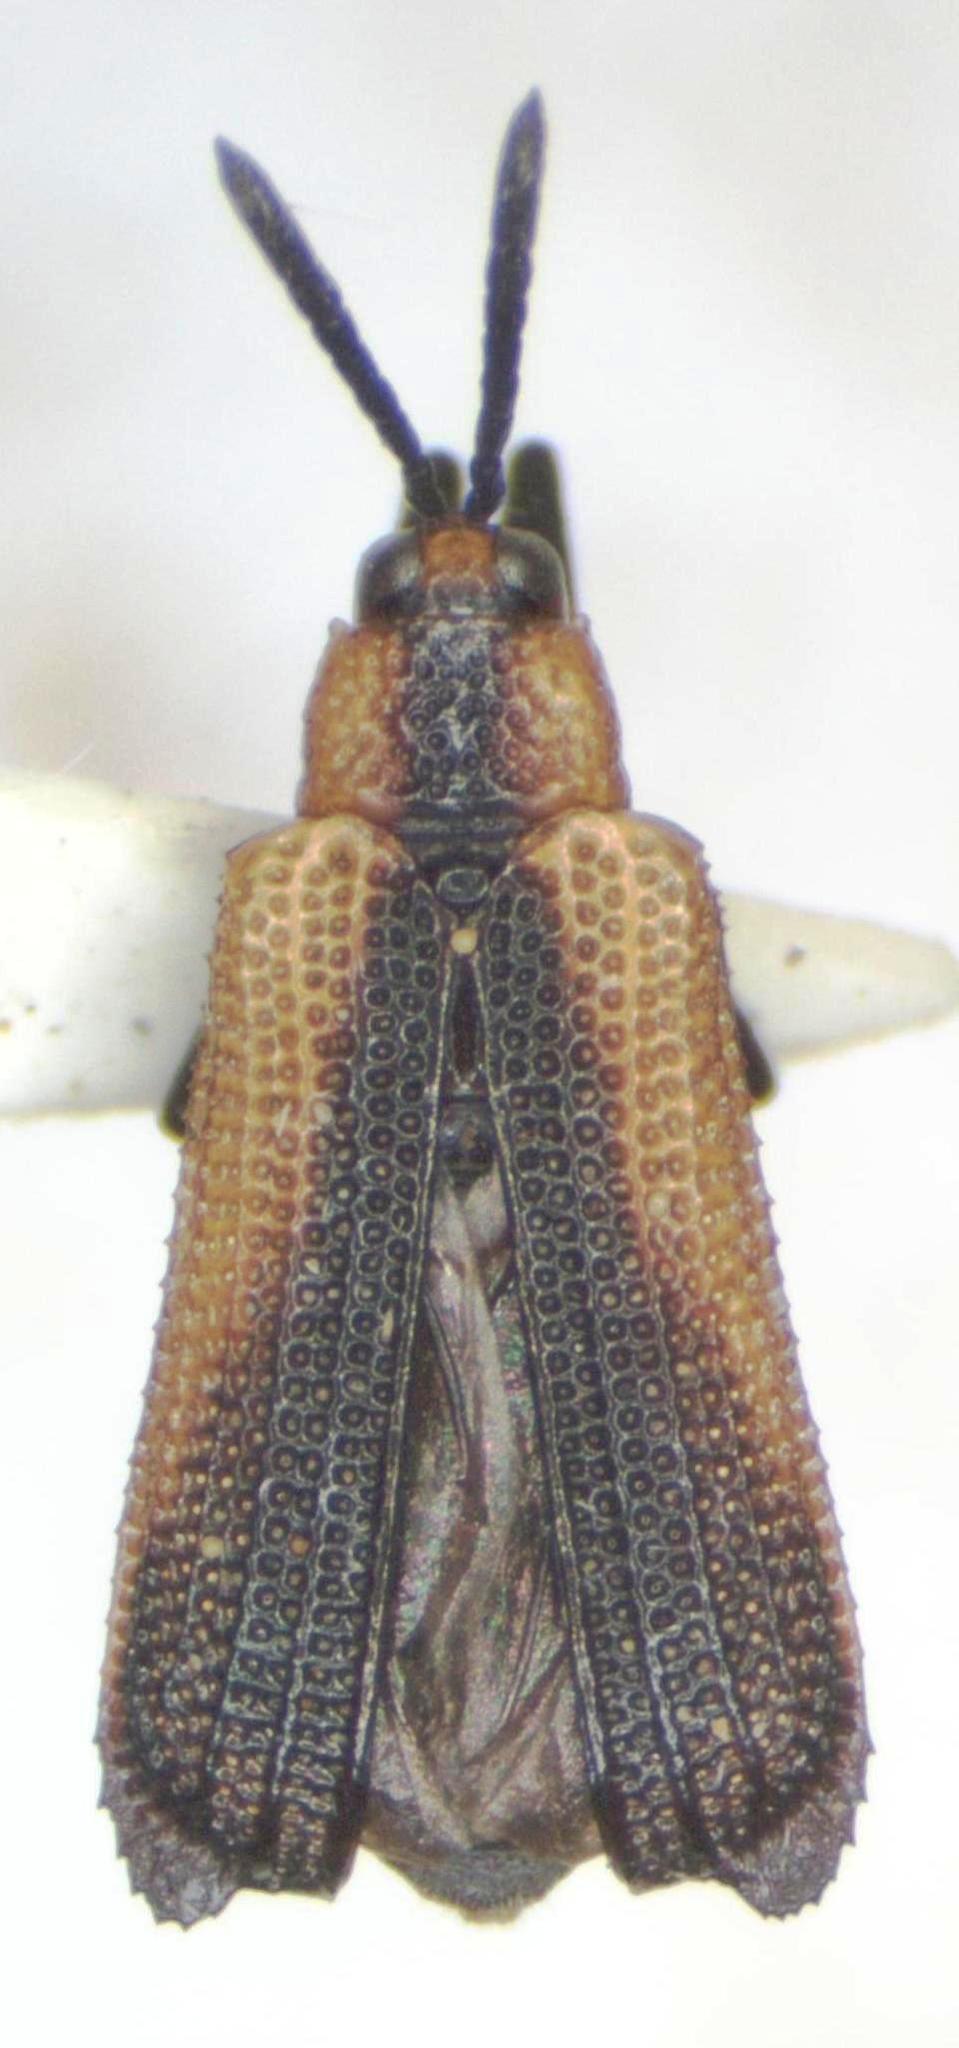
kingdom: Animalia
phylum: Arthropoda
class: Insecta
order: Coleoptera
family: Chrysomelidae
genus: Uroplata
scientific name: Uroplata sculptilis
